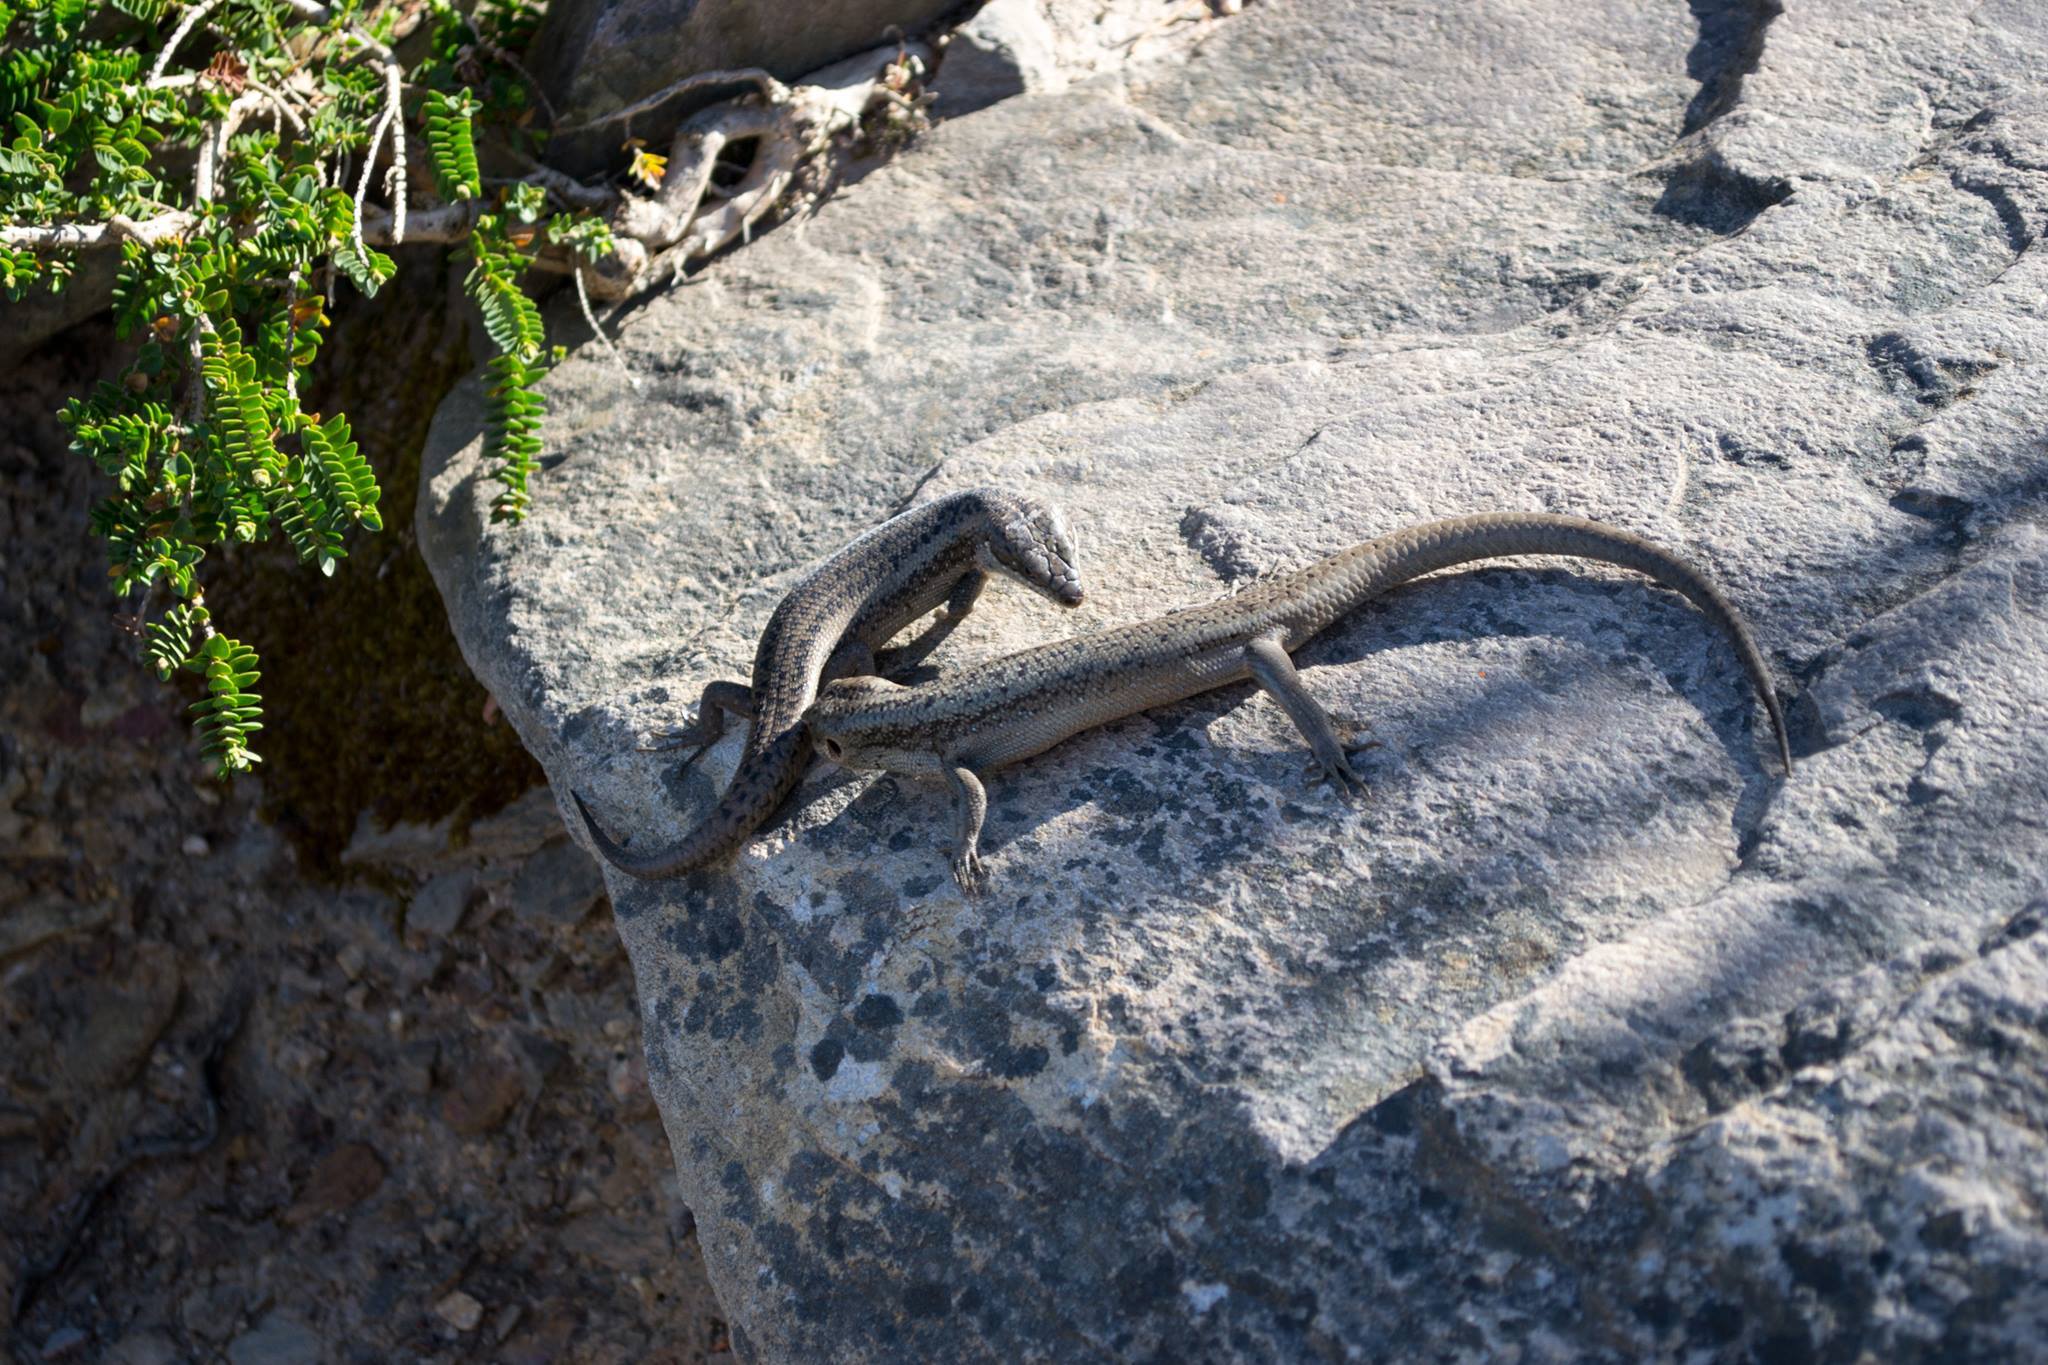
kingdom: Animalia
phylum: Chordata
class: Squamata
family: Scincidae
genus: Egernia
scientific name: Egernia napoleonis
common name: South-western crevice skink
